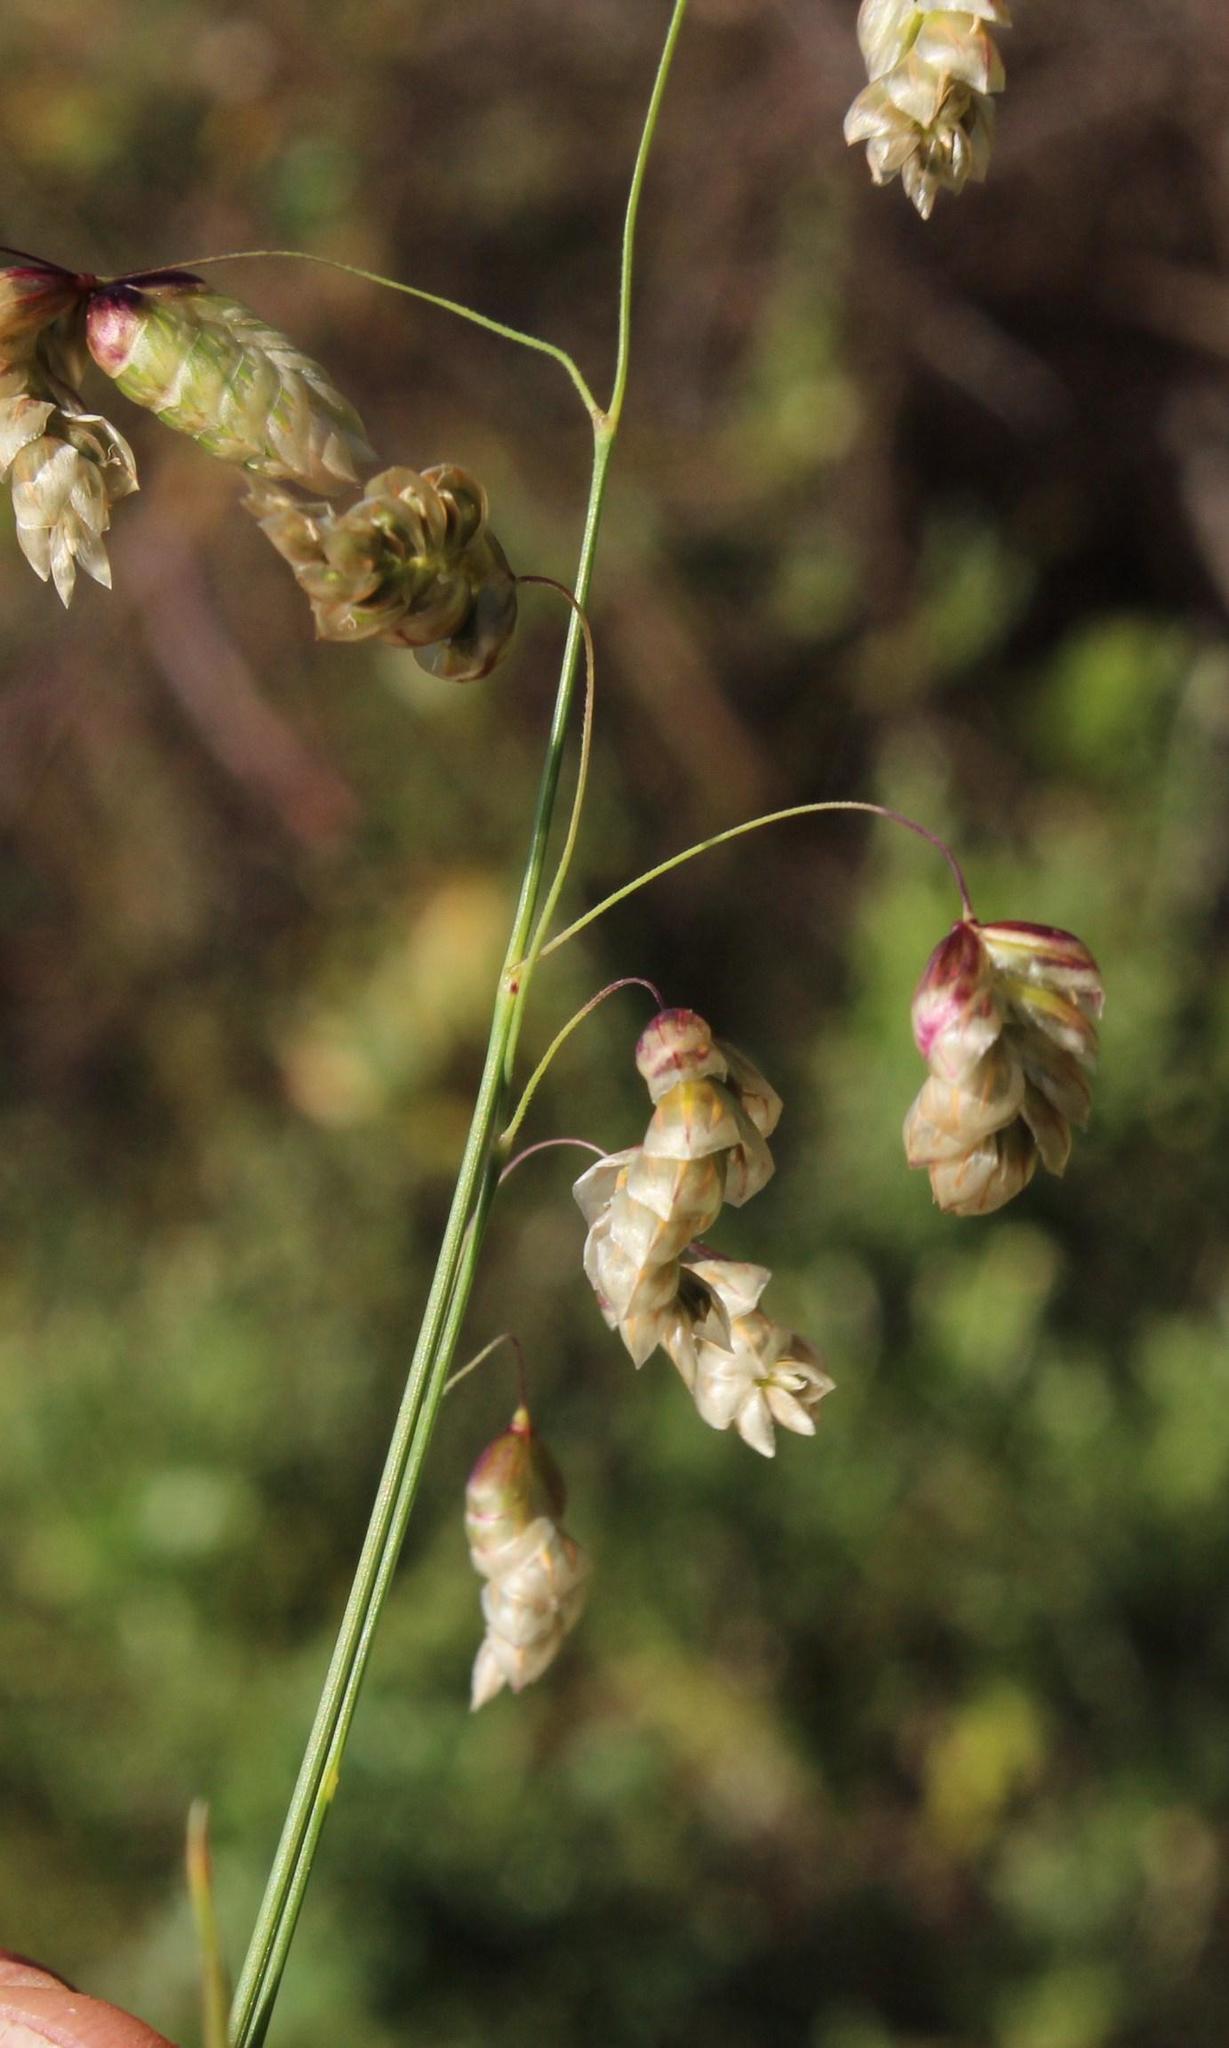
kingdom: Plantae
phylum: Tracheophyta
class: Liliopsida
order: Poales
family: Poaceae
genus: Briza
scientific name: Briza maxima
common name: Big quakinggrass
